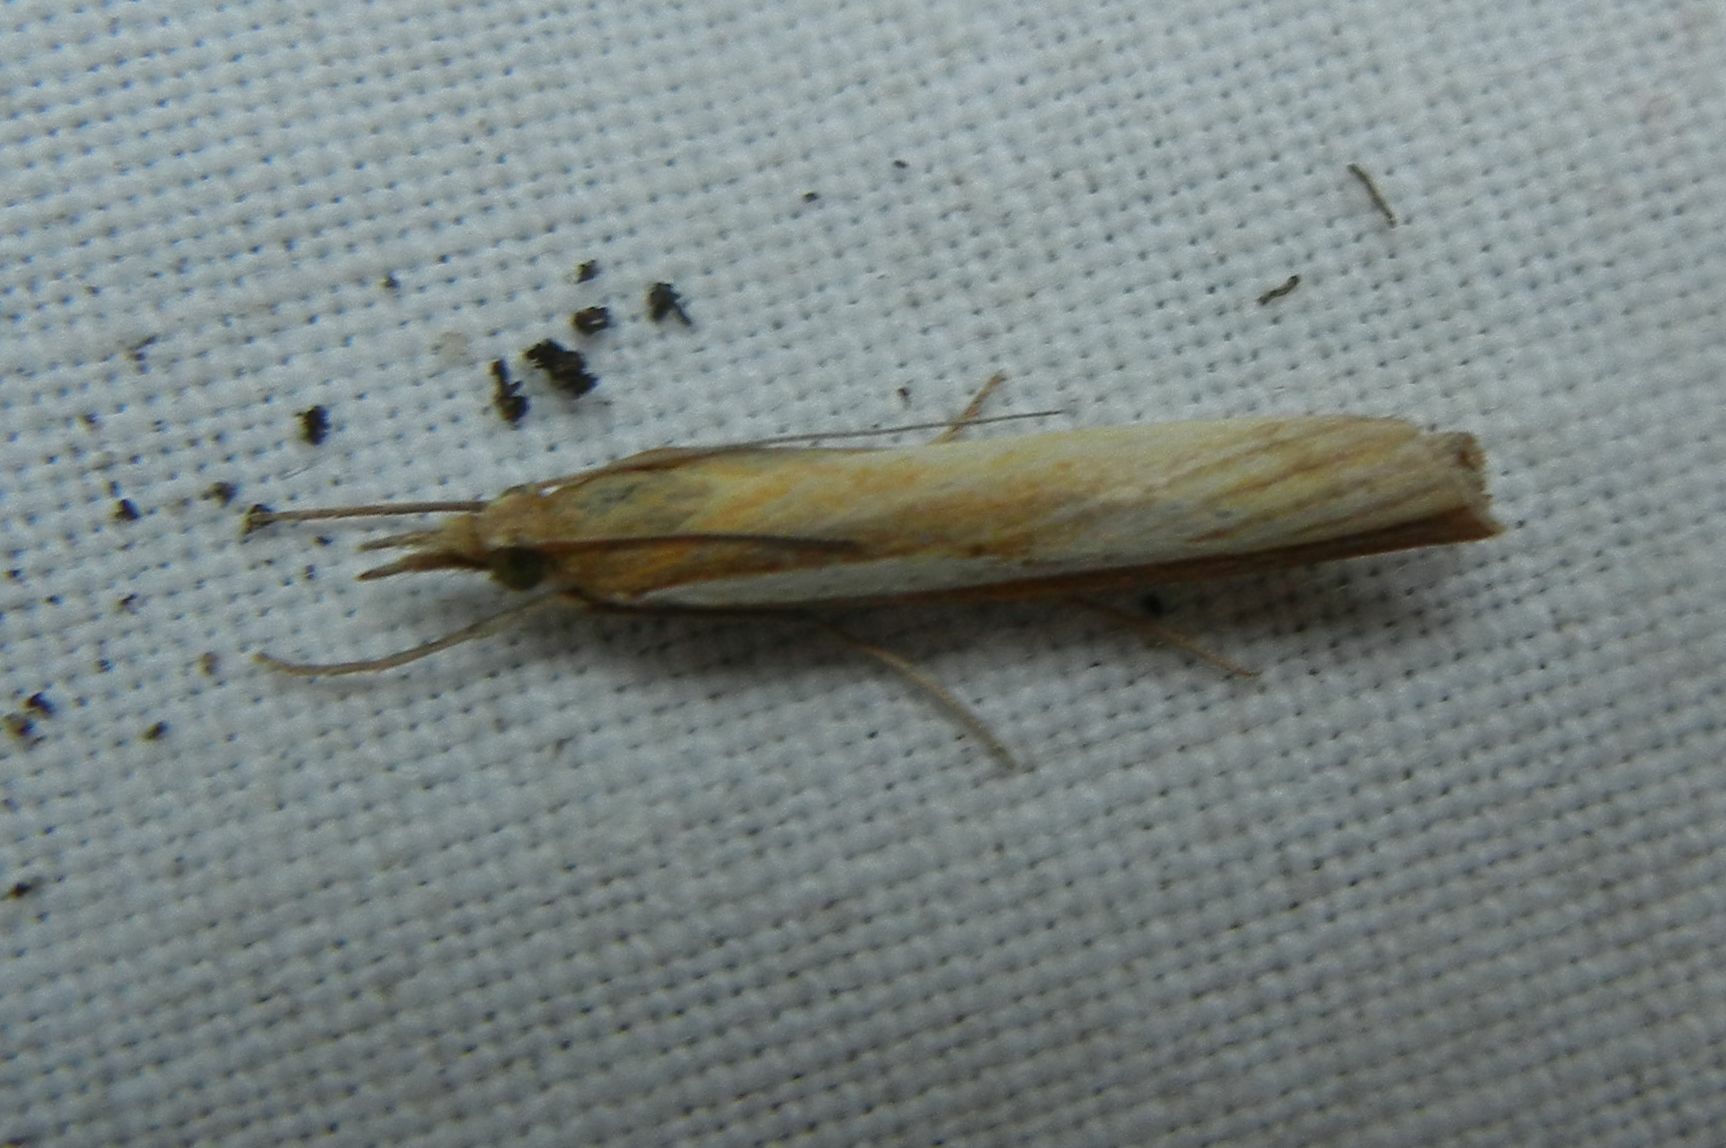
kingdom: Animalia
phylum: Arthropoda
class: Insecta
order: Lepidoptera
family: Crambidae
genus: Agriphila
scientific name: Agriphila tristellus
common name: Common grass-veneer
